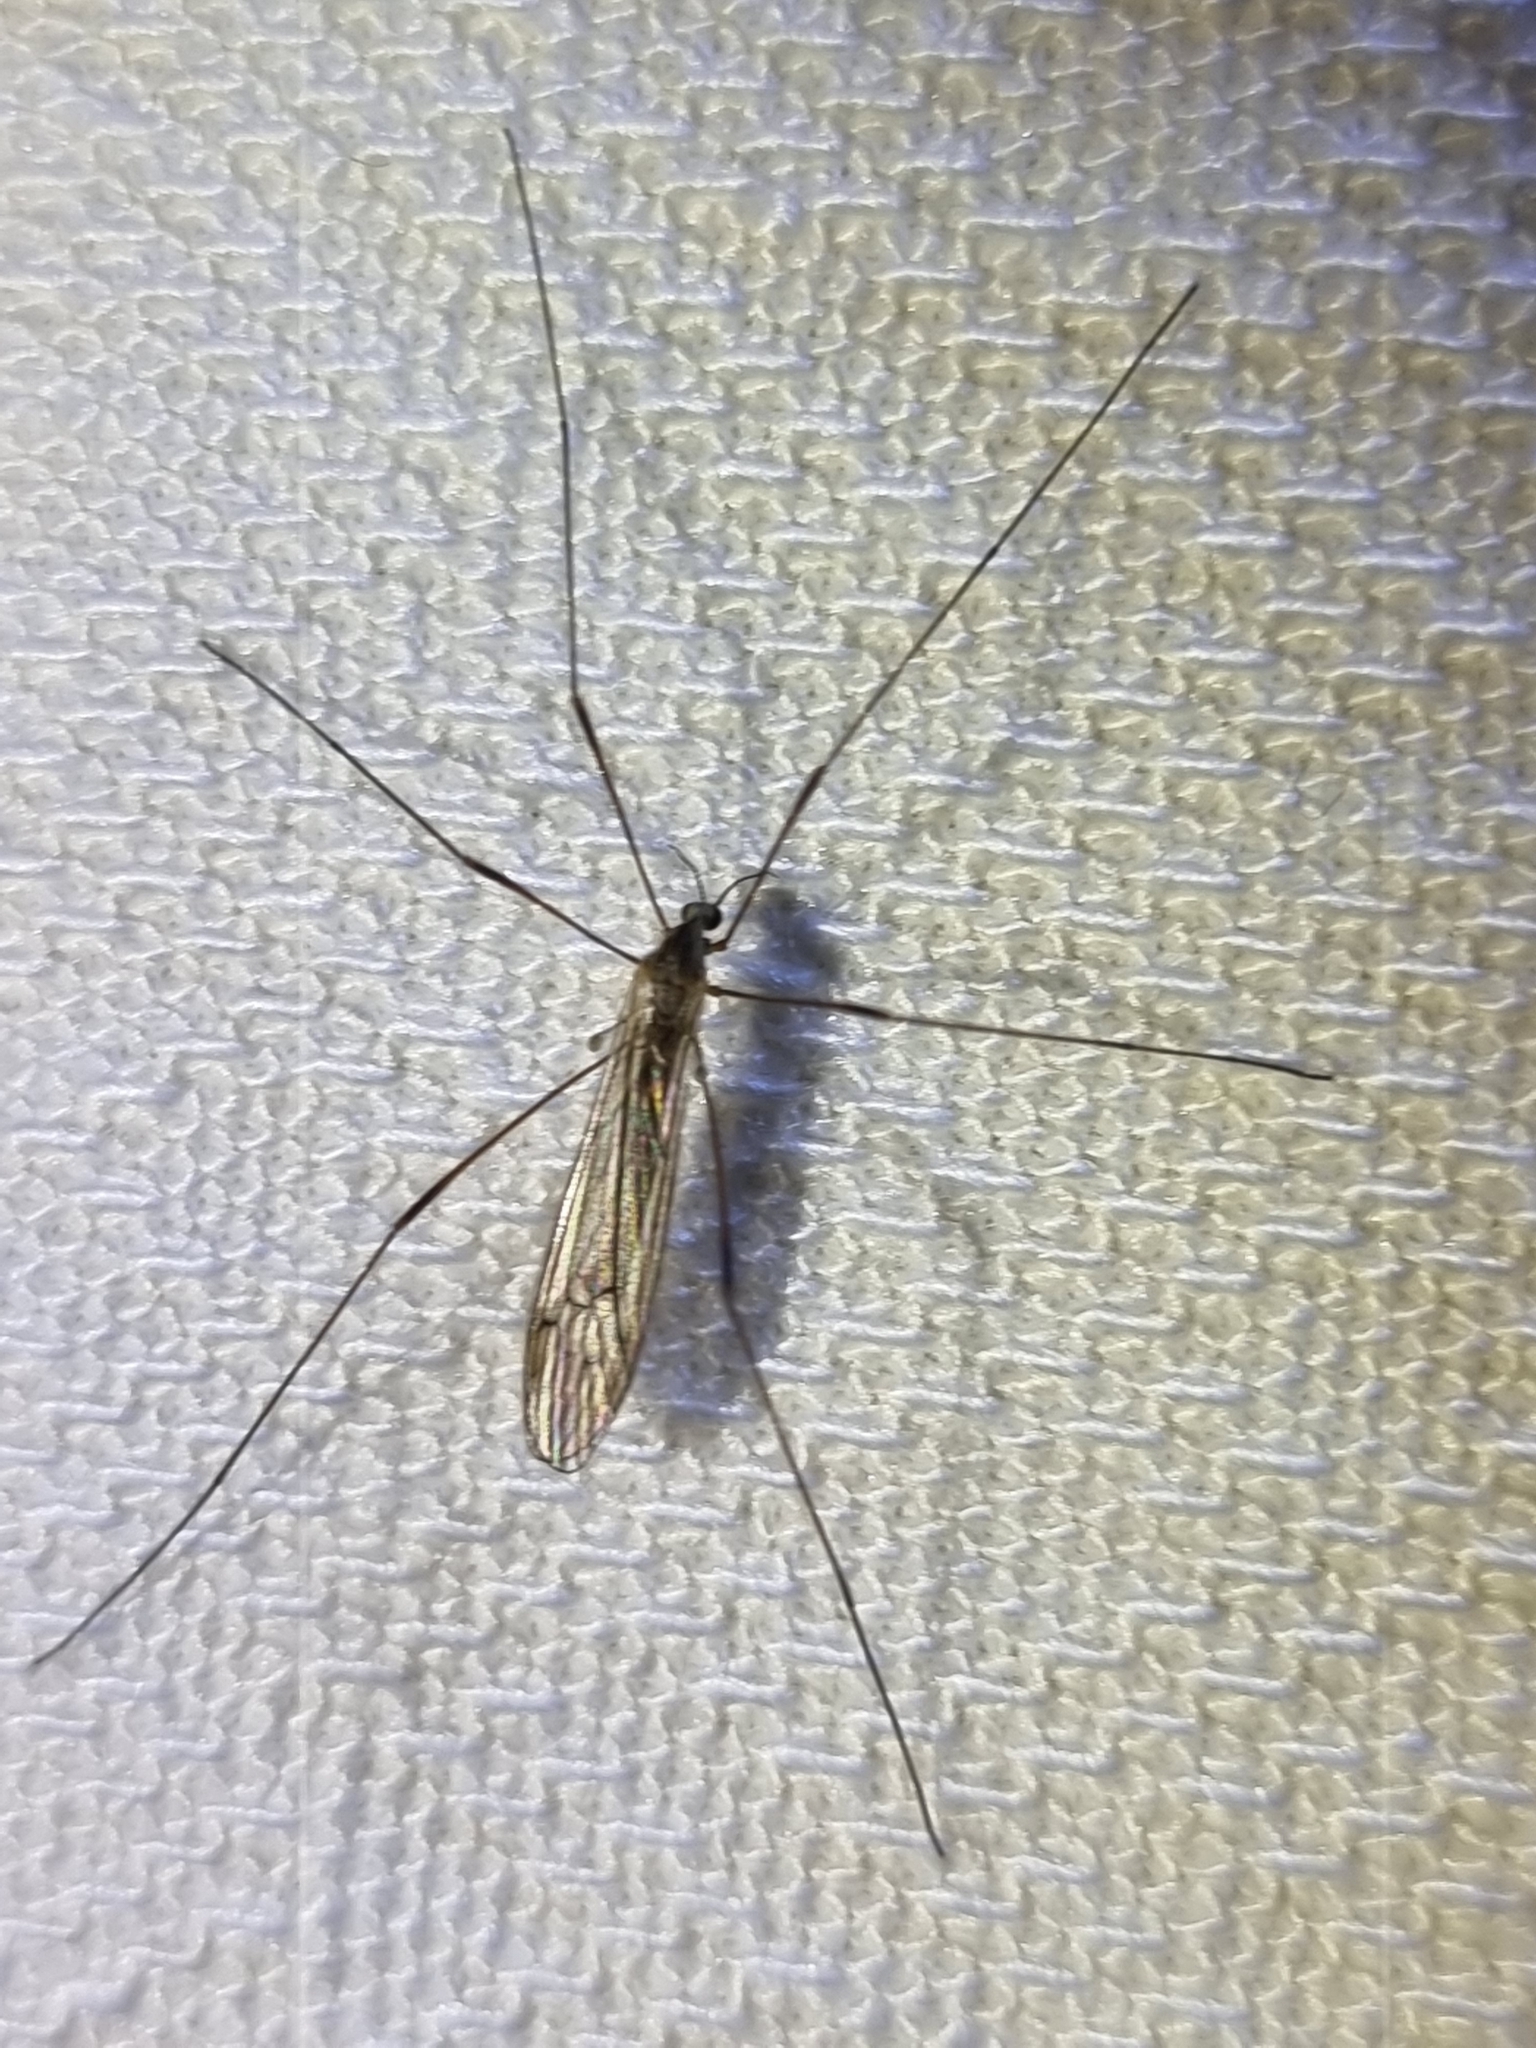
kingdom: Animalia
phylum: Arthropoda
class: Insecta
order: Diptera
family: Limoniidae
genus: Symplecta
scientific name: Symplecta pilipes
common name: Crane fly
